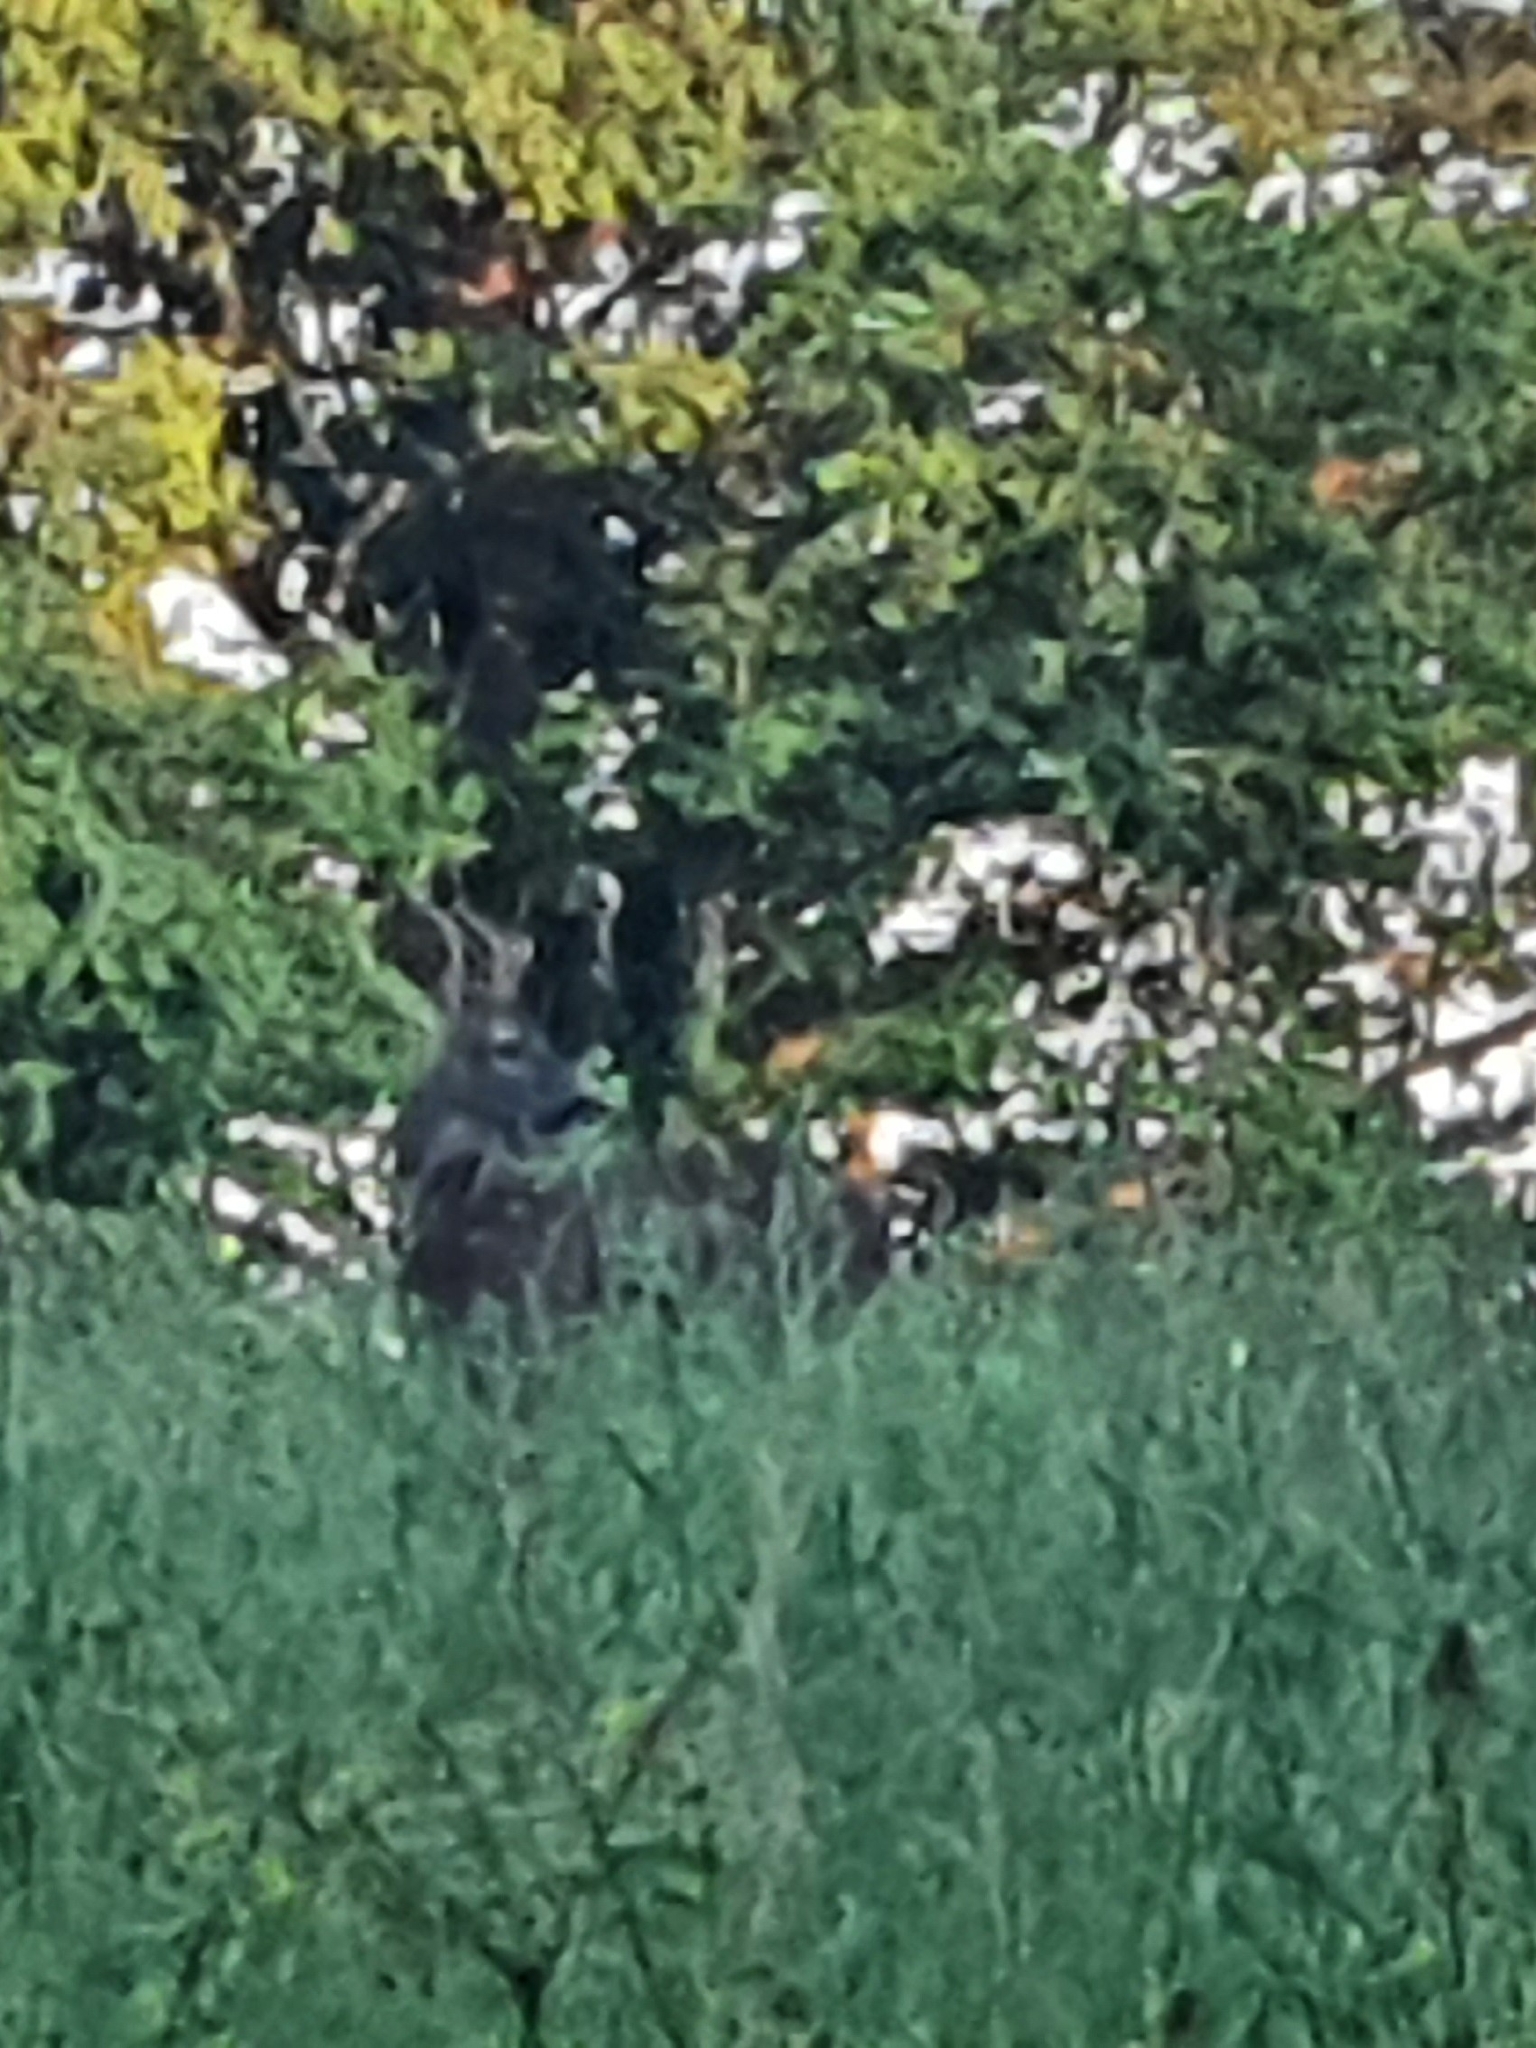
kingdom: Animalia
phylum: Chordata
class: Mammalia
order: Artiodactyla
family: Cervidae
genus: Capreolus
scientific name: Capreolus capreolus
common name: Western roe deer
